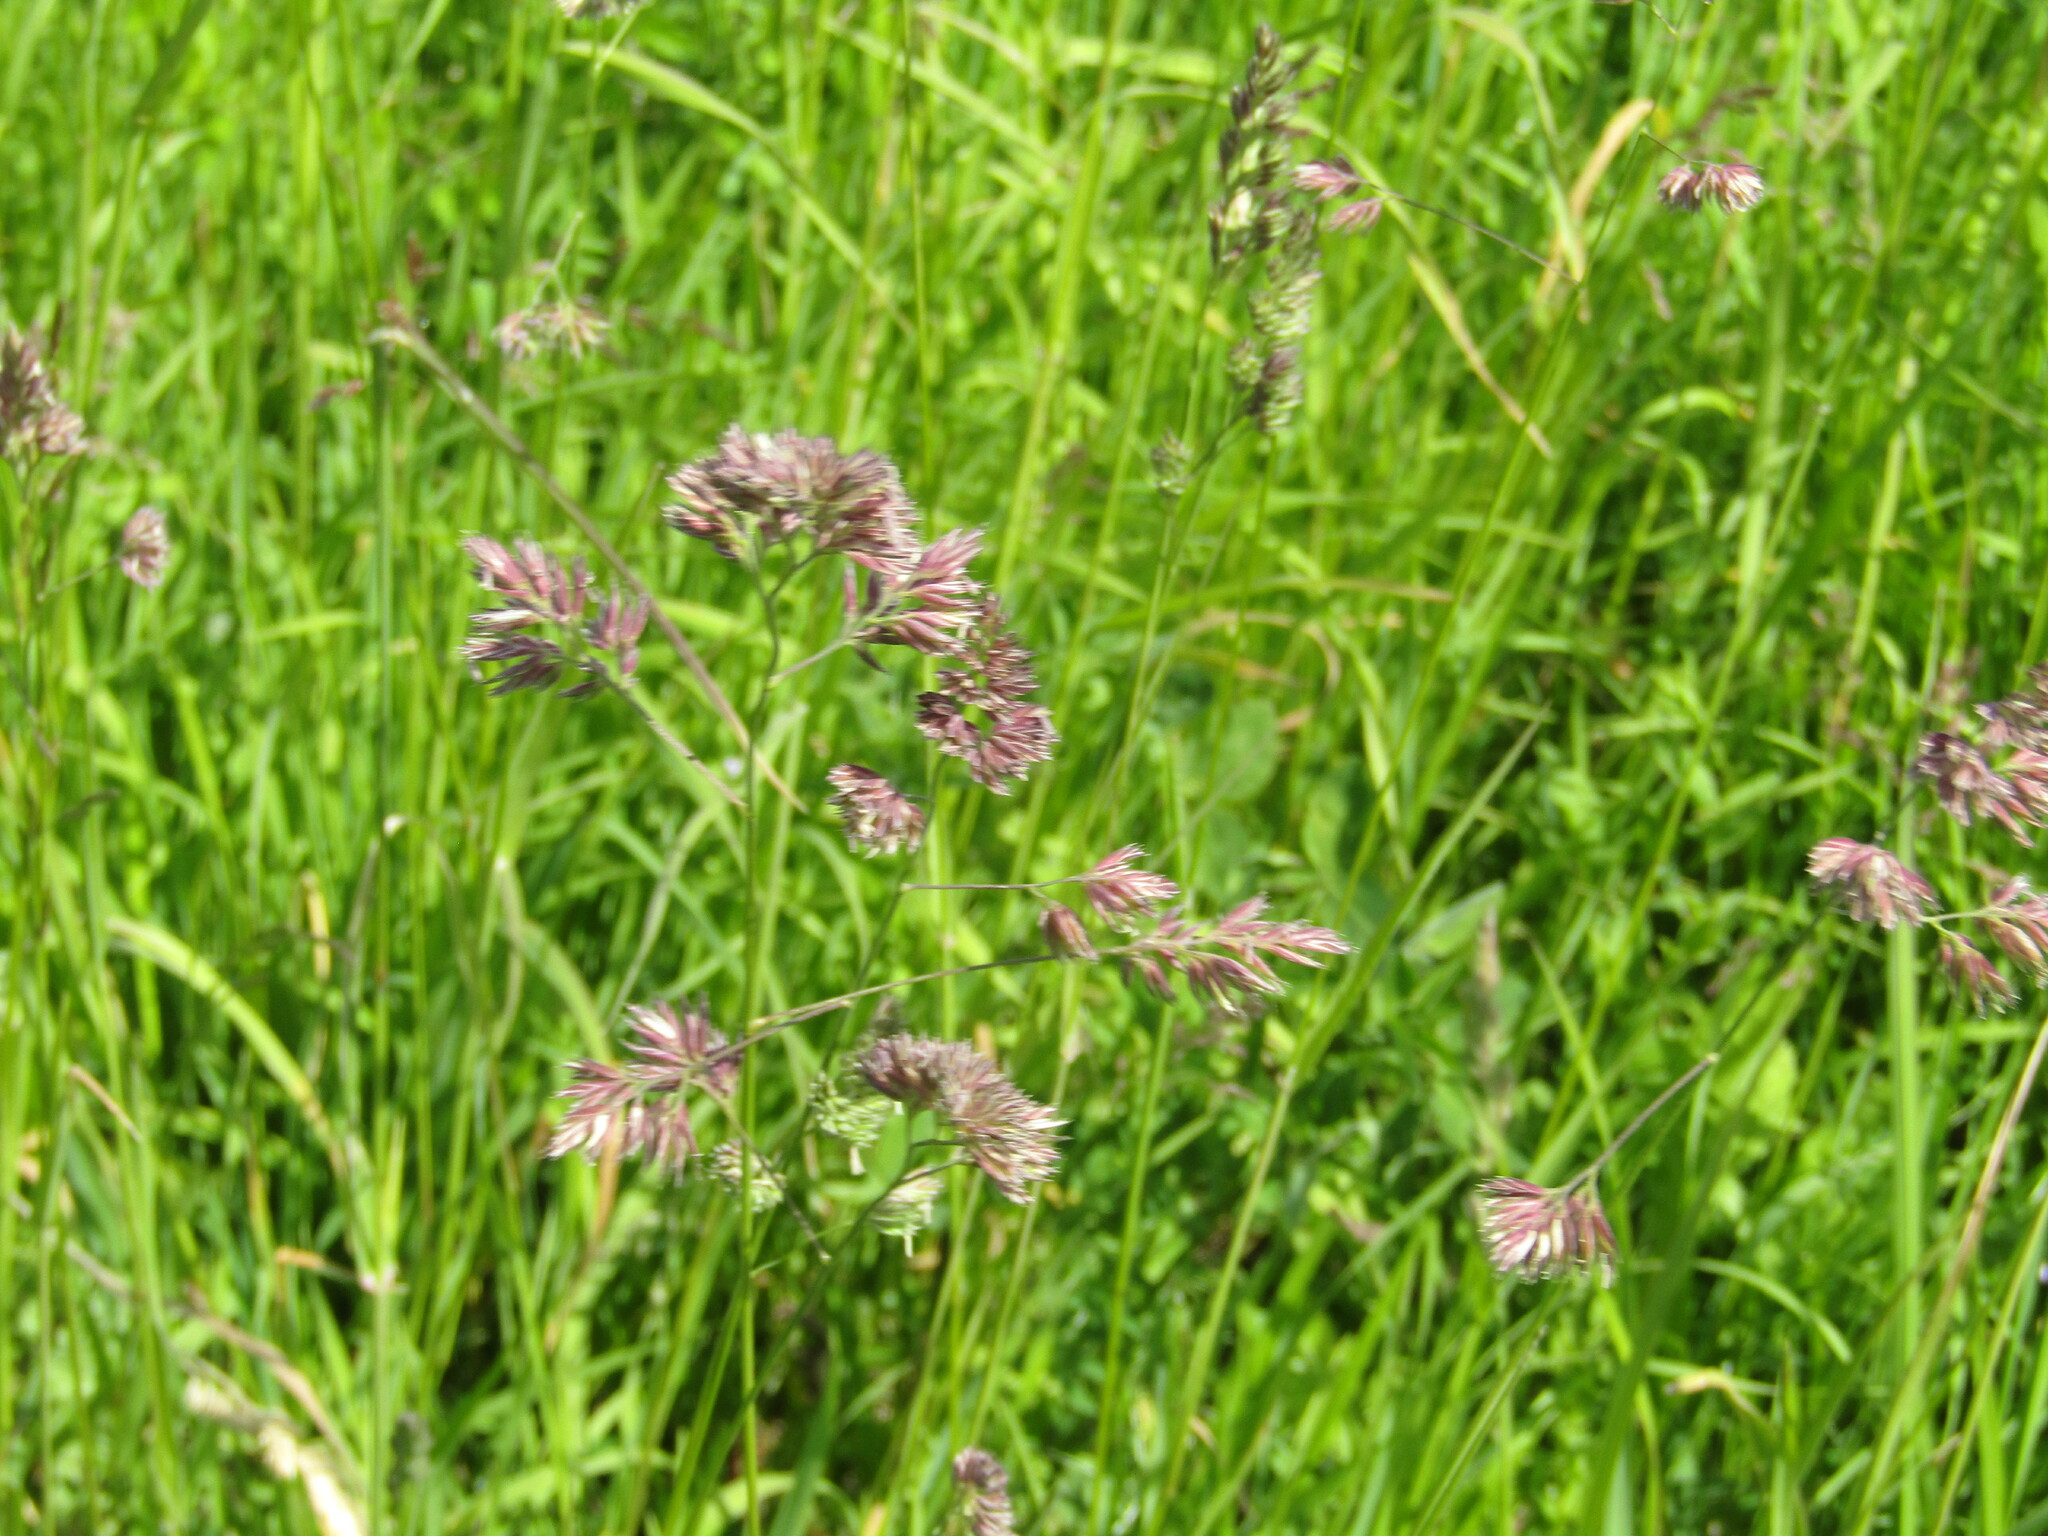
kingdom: Plantae
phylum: Tracheophyta
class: Liliopsida
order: Poales
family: Poaceae
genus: Dactylis
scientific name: Dactylis glomerata
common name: Orchardgrass
